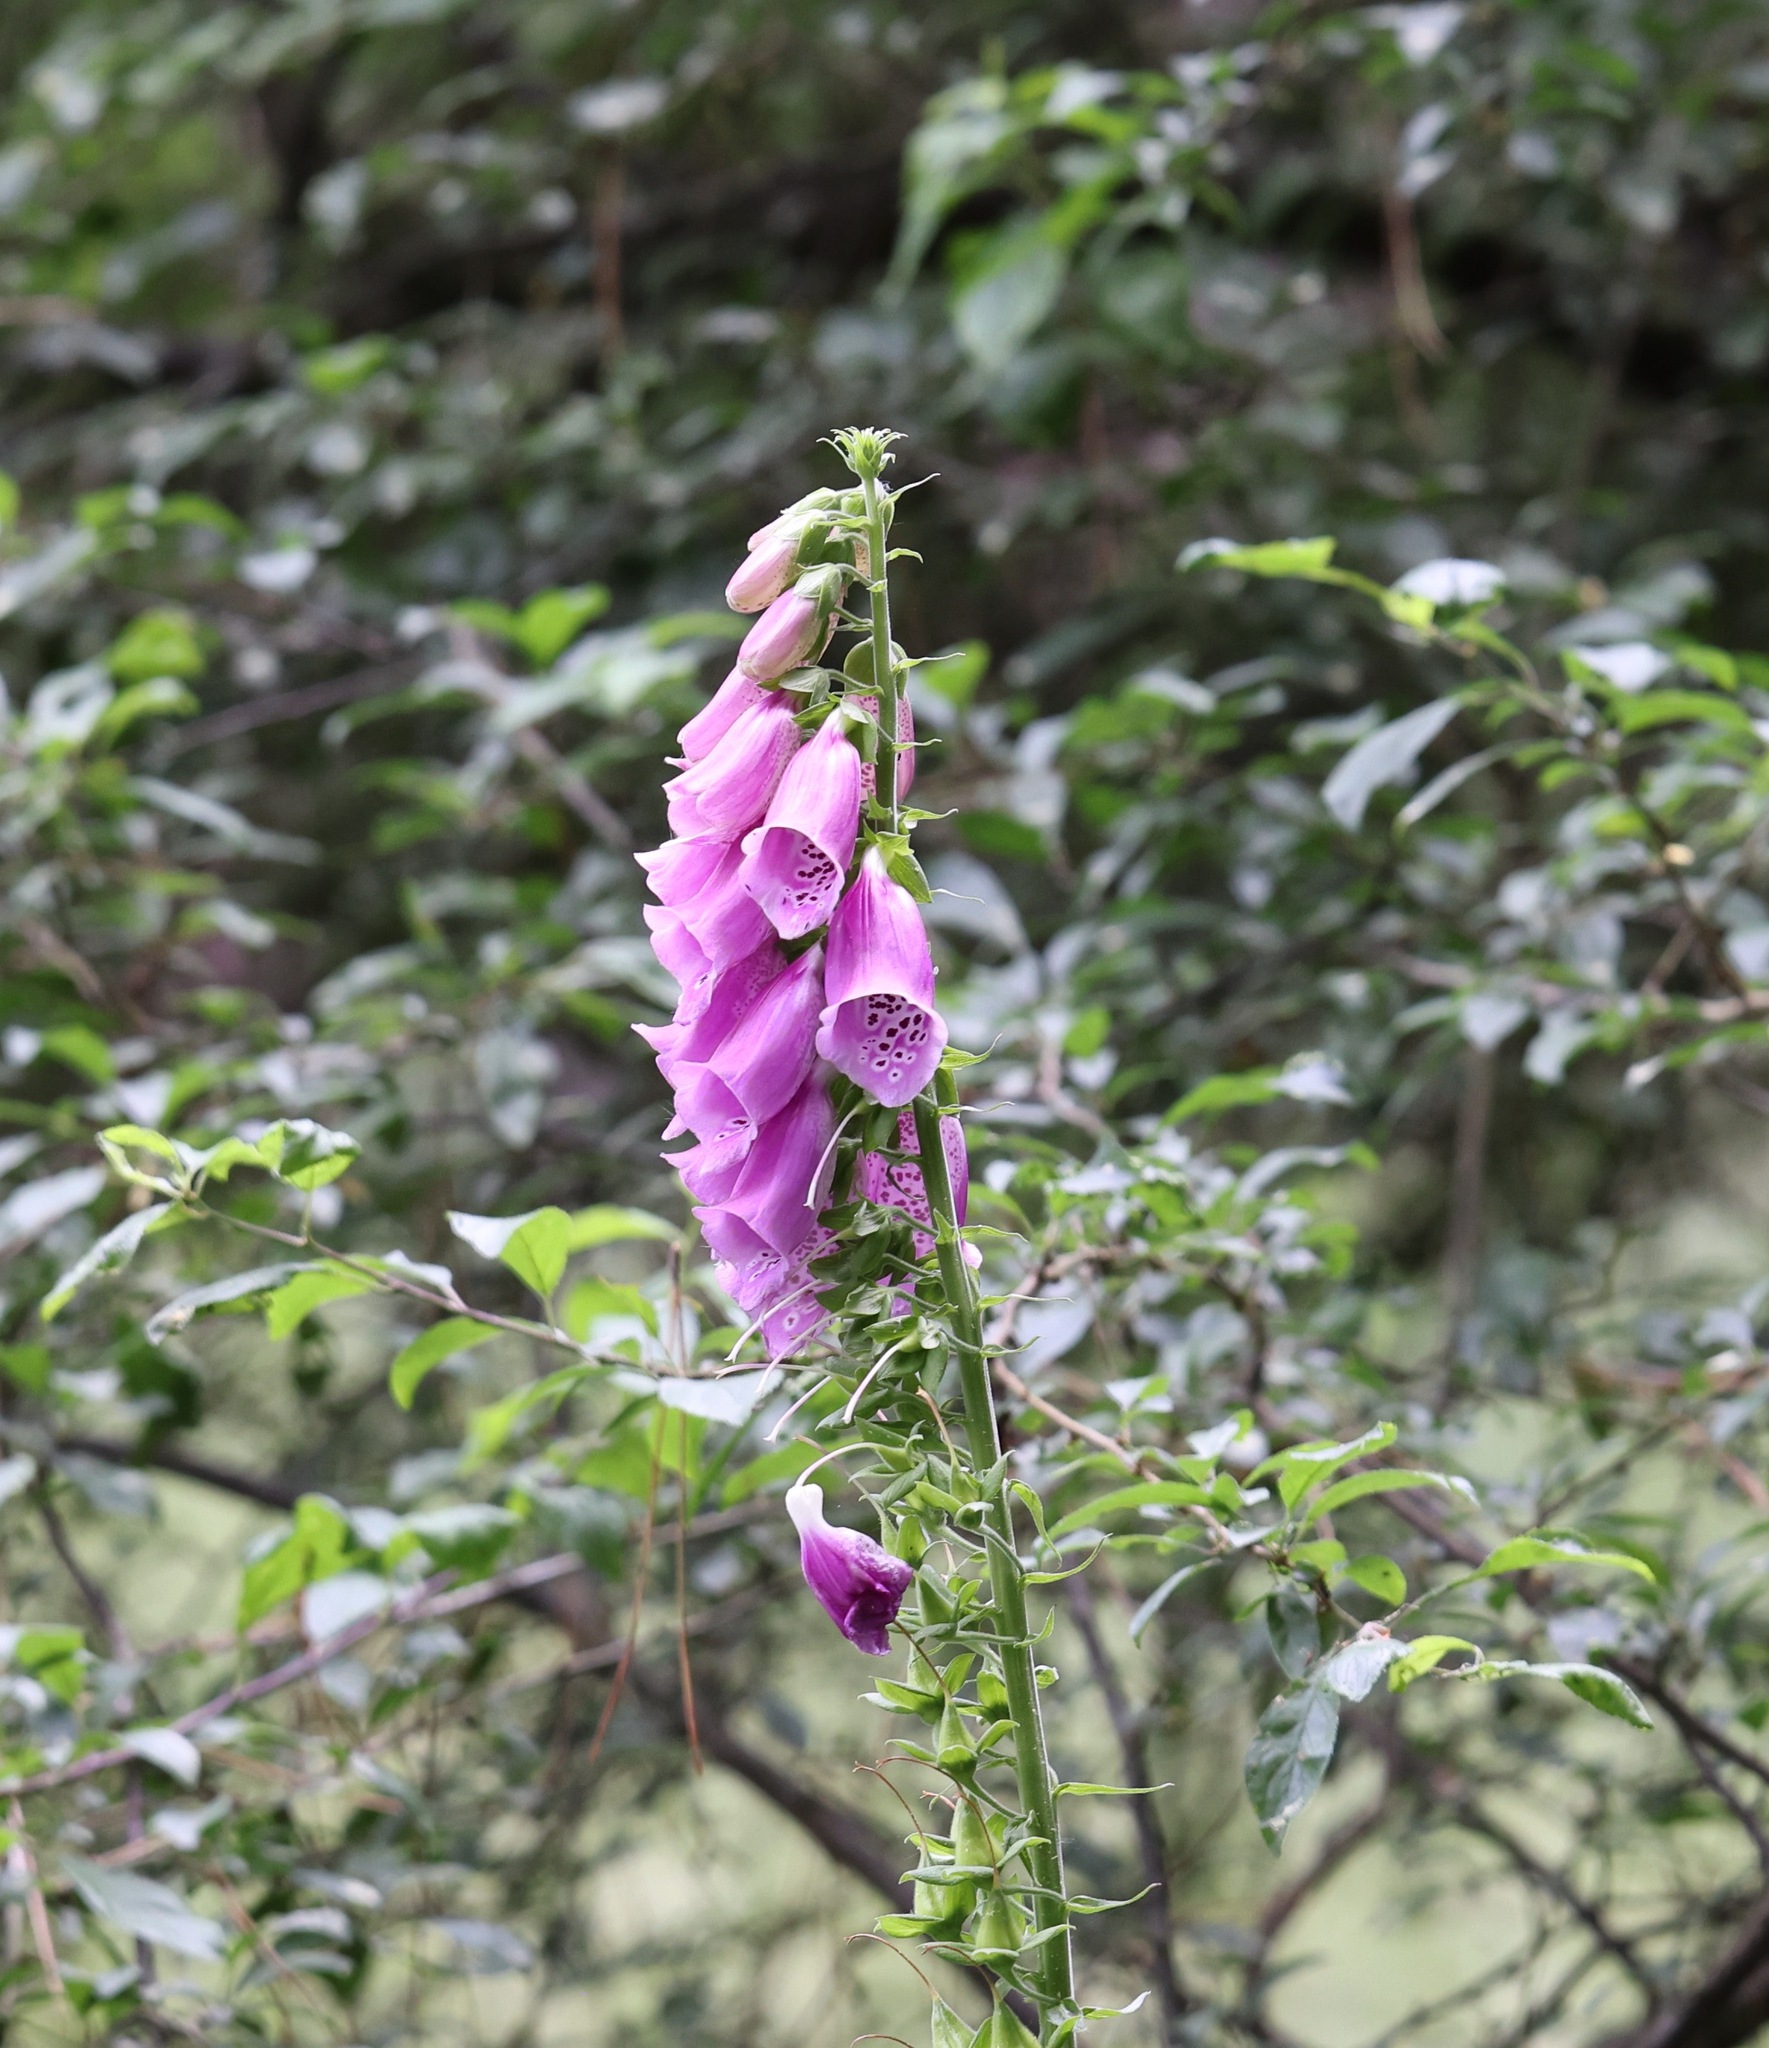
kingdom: Plantae
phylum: Tracheophyta
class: Magnoliopsida
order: Lamiales
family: Plantaginaceae
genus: Digitalis
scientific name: Digitalis purpurea
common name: Foxglove
